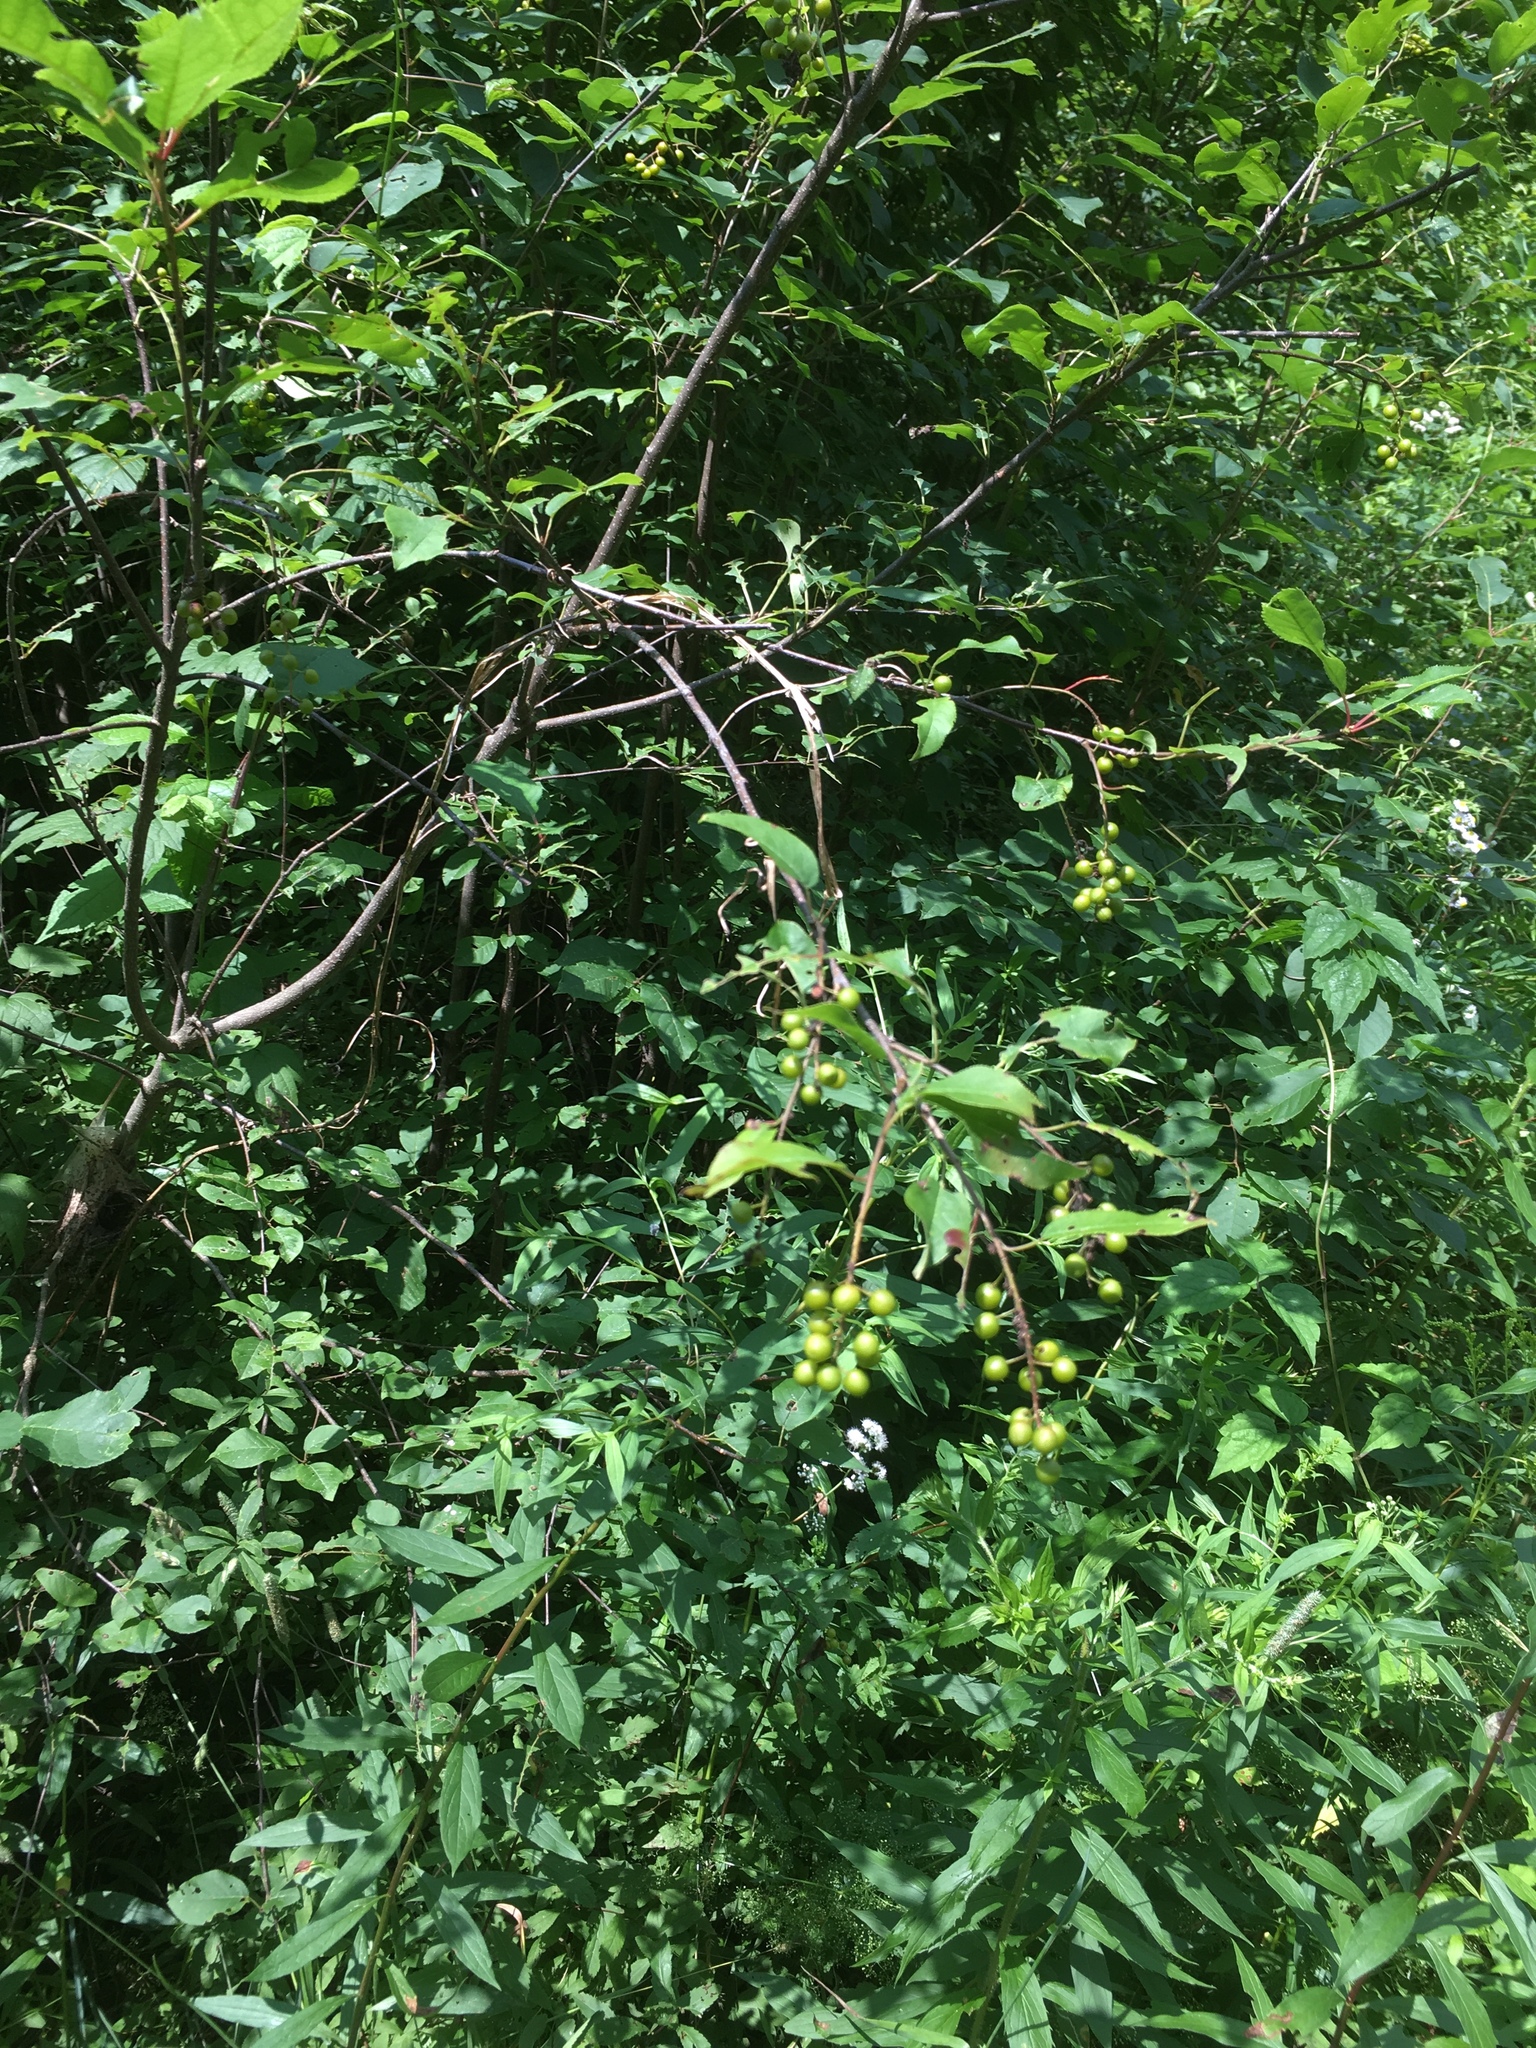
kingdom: Plantae
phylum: Tracheophyta
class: Magnoliopsida
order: Rosales
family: Rosaceae
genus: Prunus
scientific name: Prunus virginiana
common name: Chokecherry
